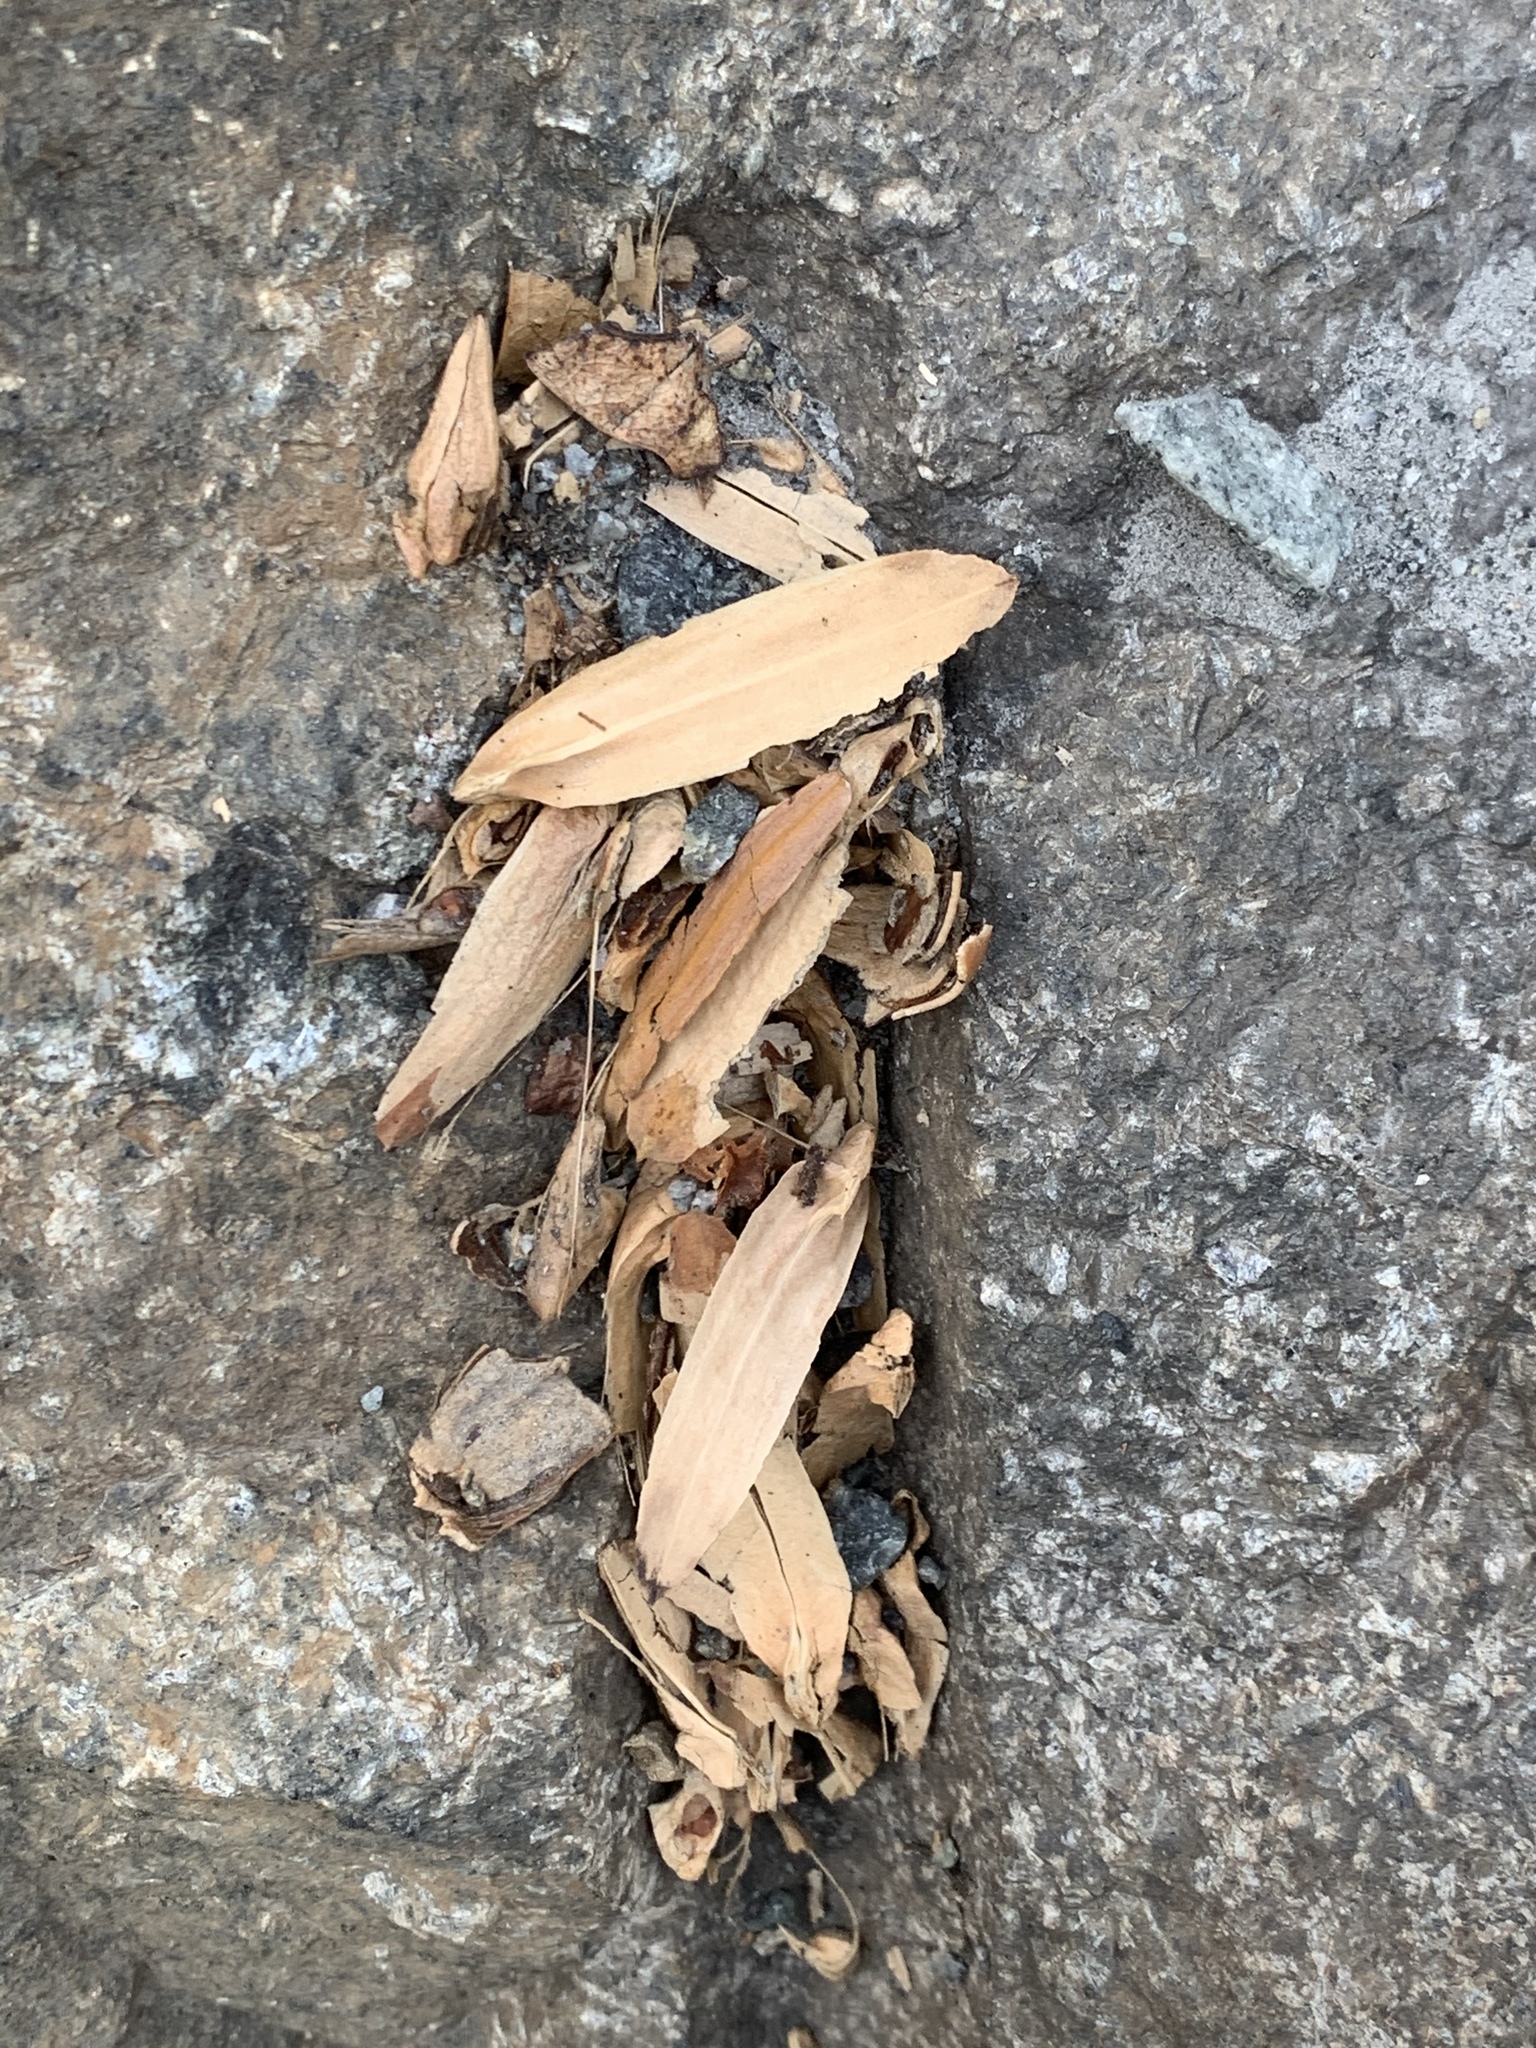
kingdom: Plantae
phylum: Tracheophyta
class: Magnoliopsida
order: Magnoliales
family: Magnoliaceae
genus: Liriodendron
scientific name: Liriodendron tulipifera
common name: Tulip tree
